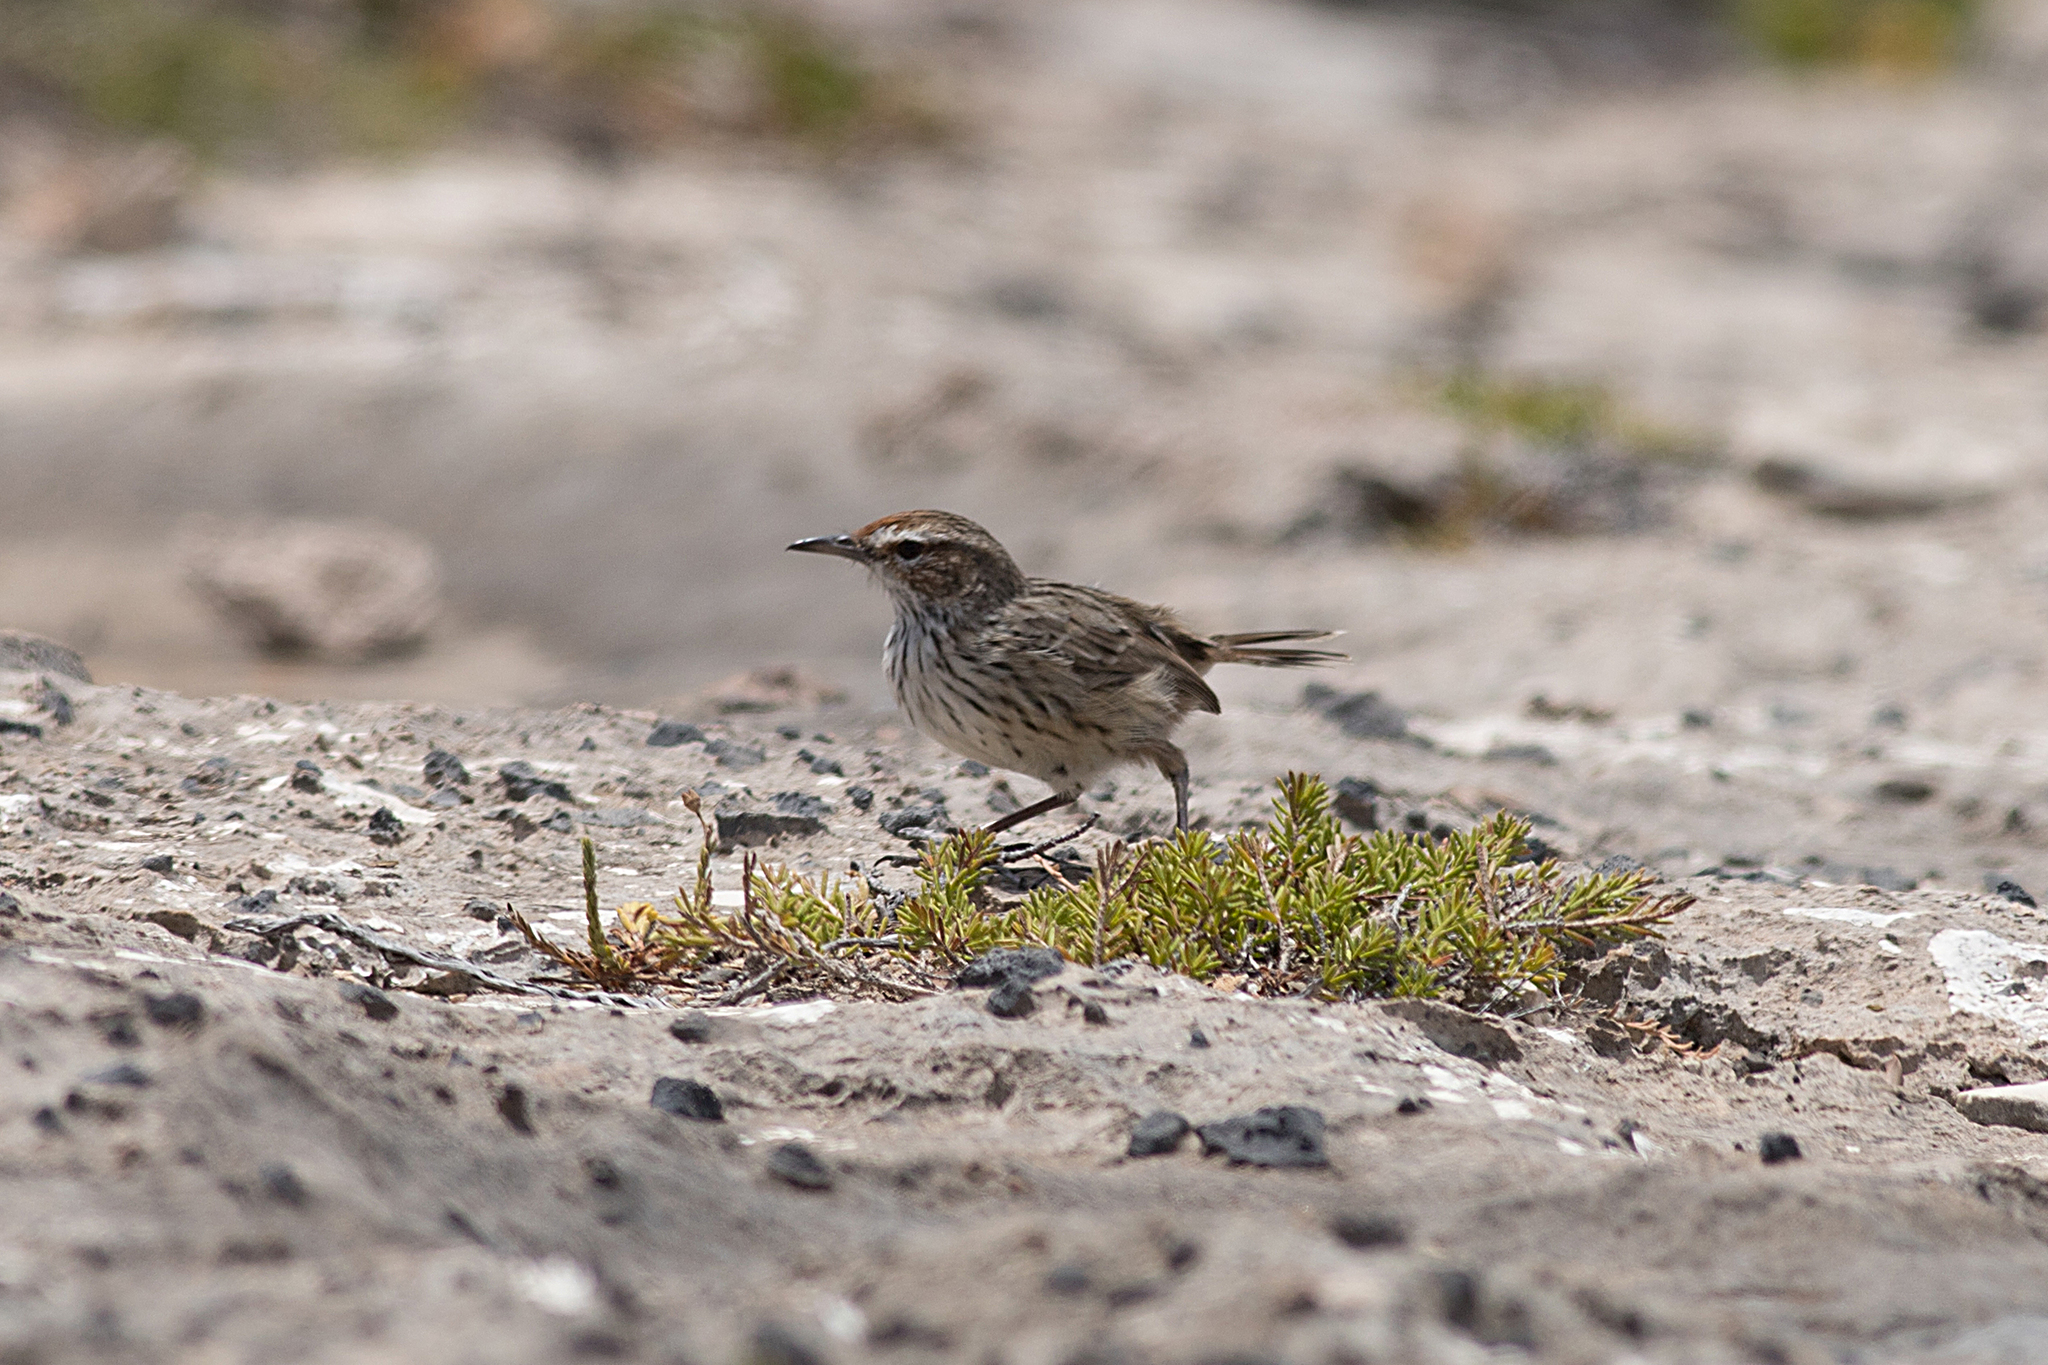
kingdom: Animalia
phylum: Chordata
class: Aves
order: Passeriformes
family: Acanthizidae
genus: Calamanthus
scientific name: Calamanthus campestris
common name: Rufous fieldwren
